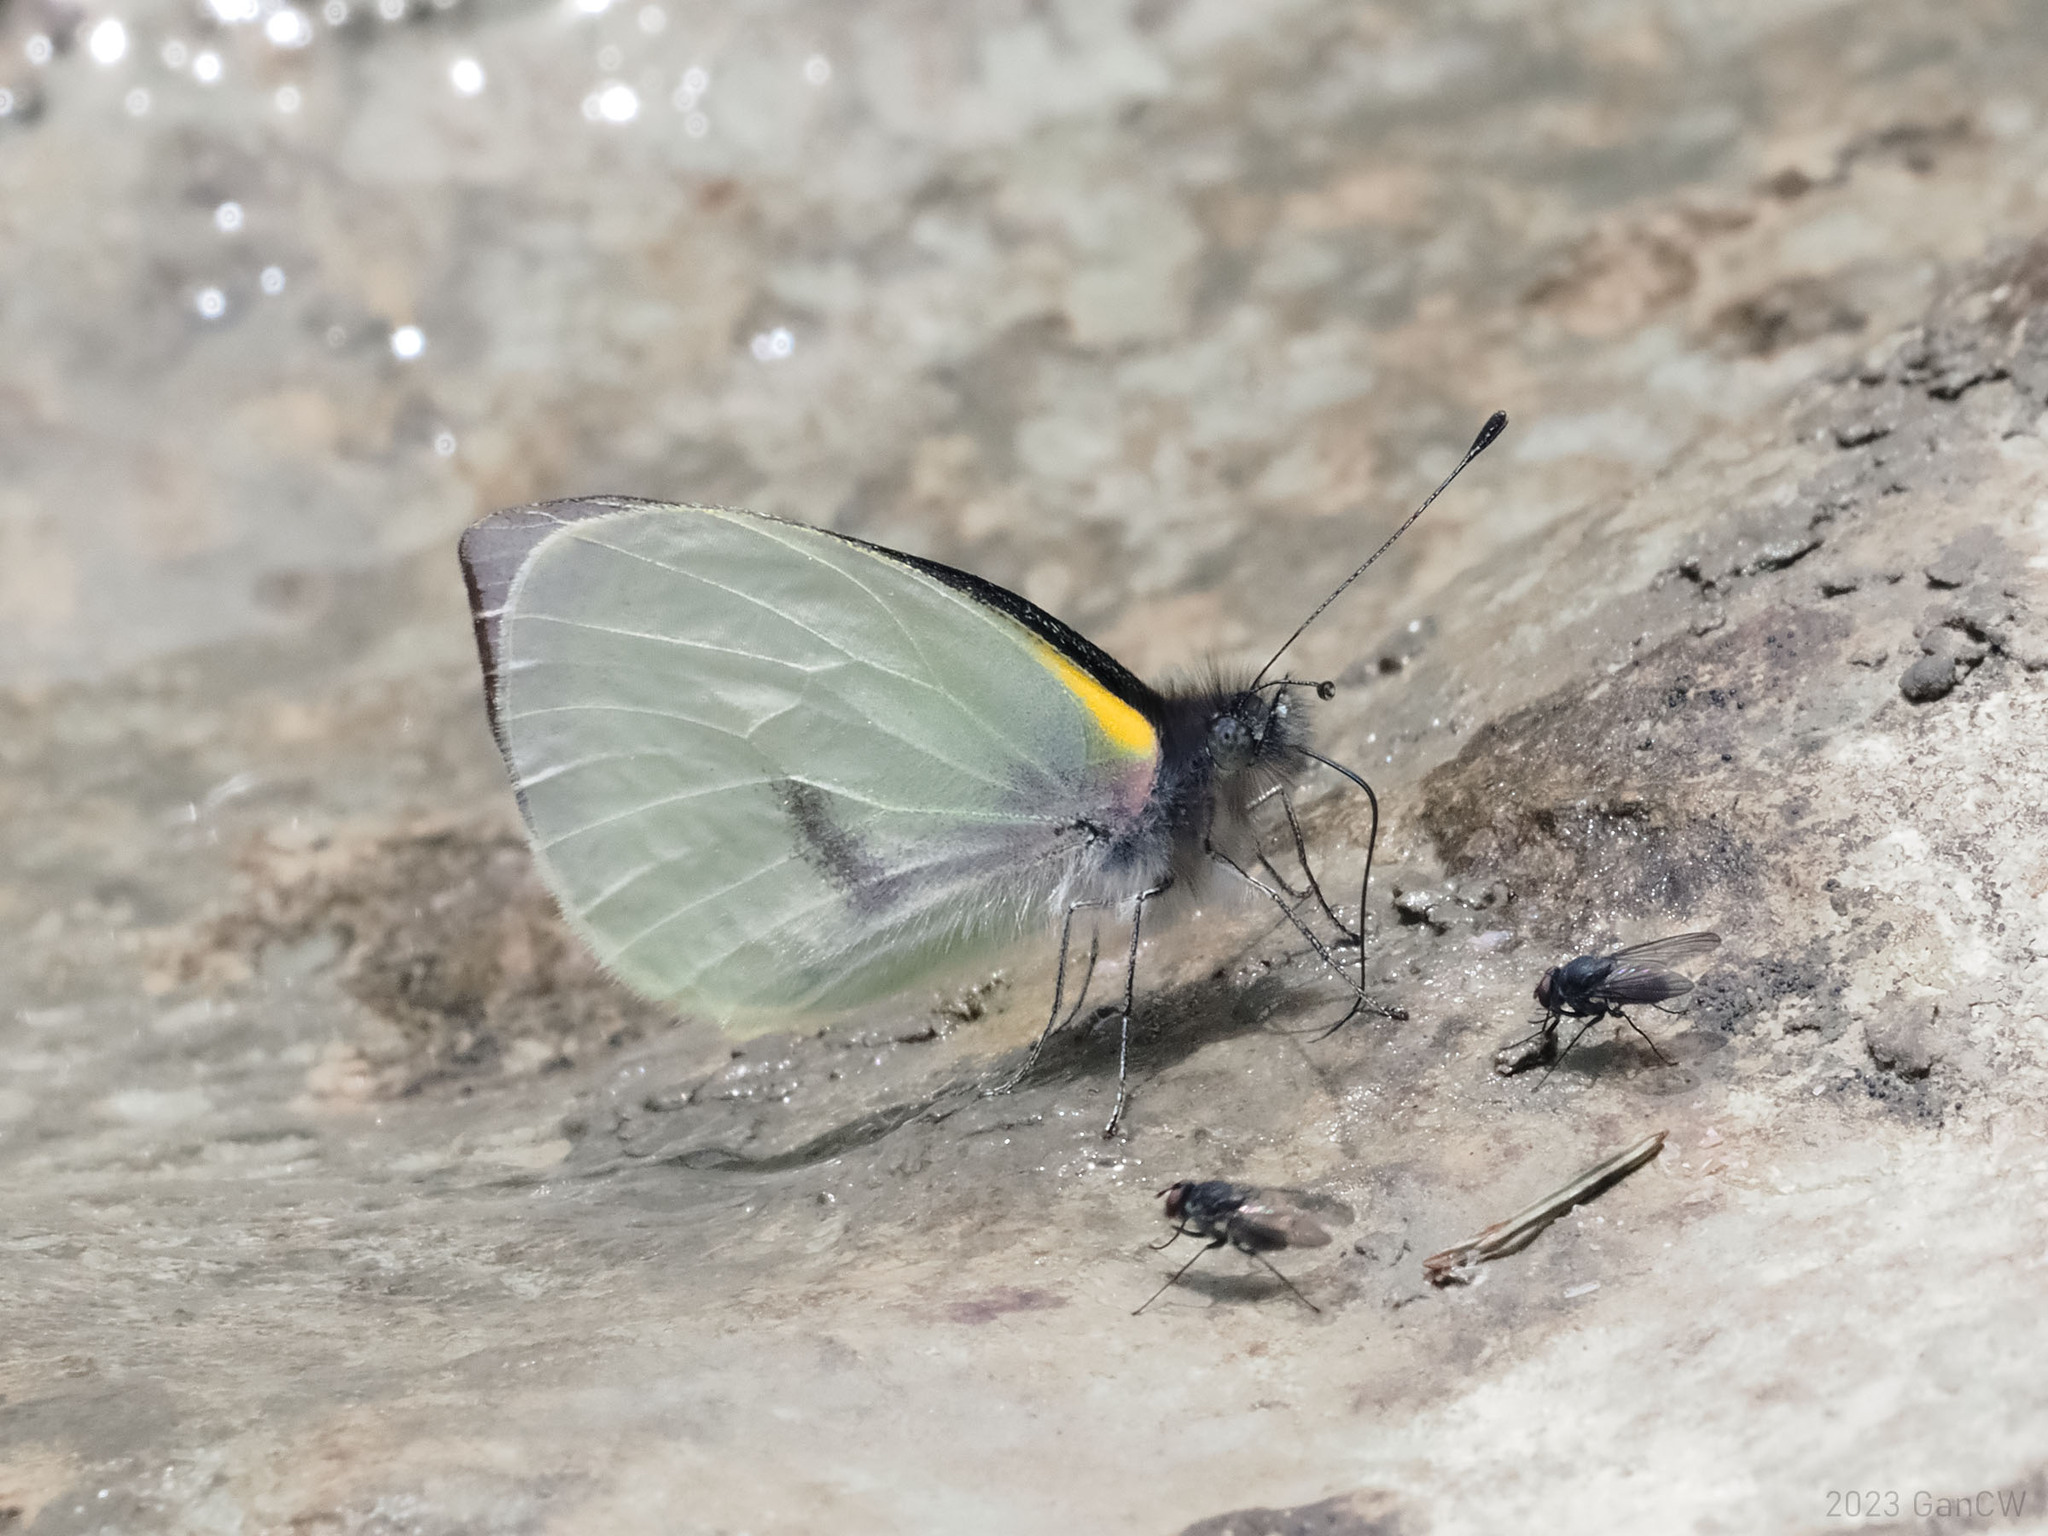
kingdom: Animalia
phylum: Arthropoda
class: Insecta
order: Lepidoptera
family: Pieridae
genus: Leuciacria
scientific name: Leuciacria acuta
